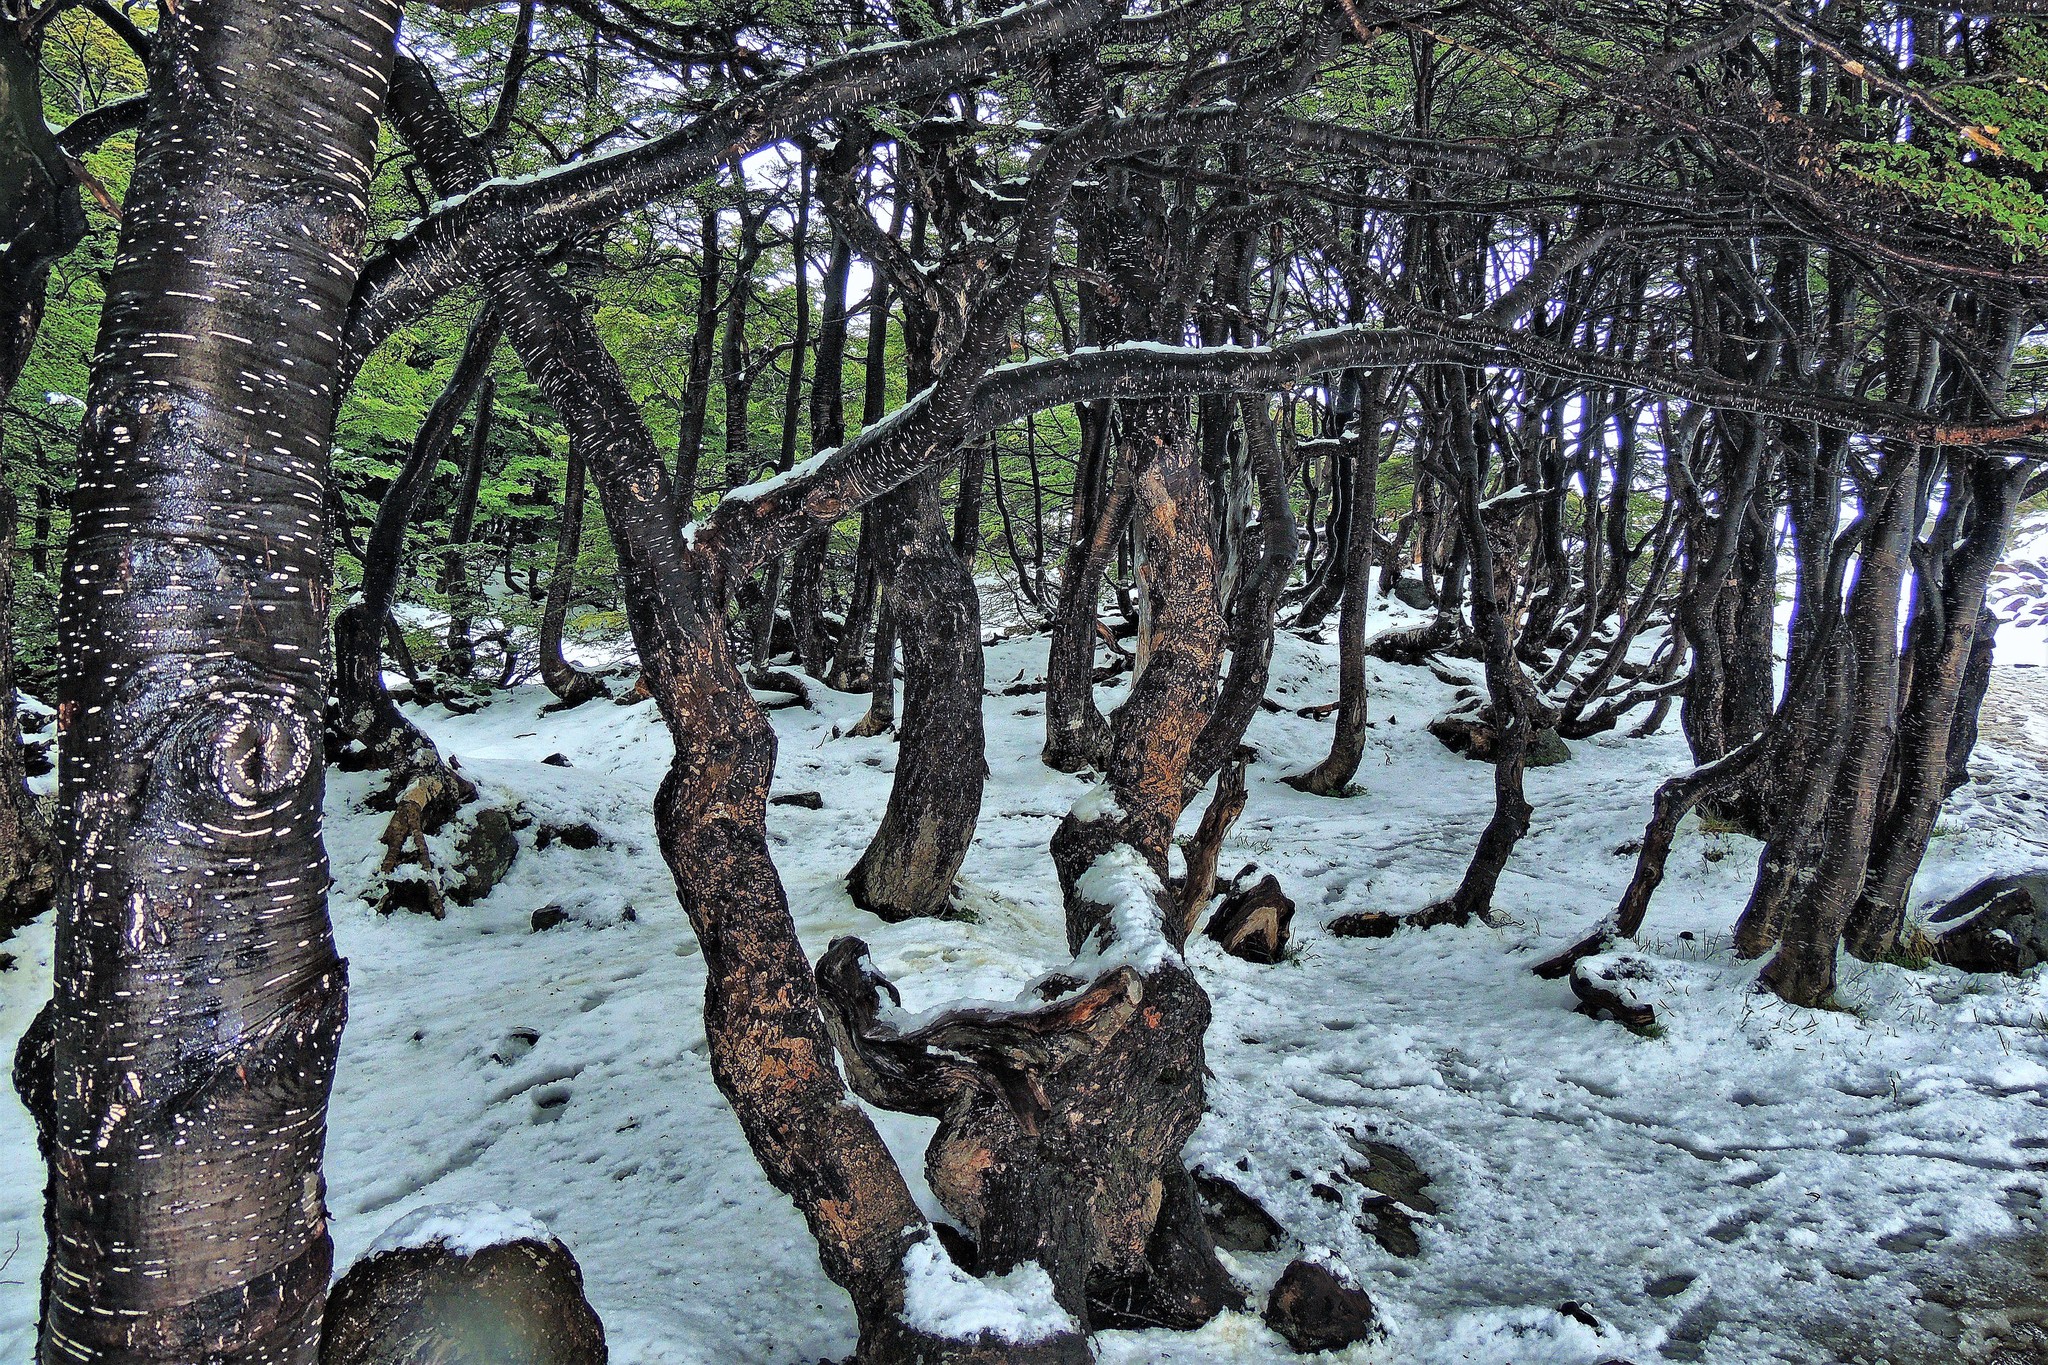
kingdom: Plantae
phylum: Tracheophyta
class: Magnoliopsida
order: Fagales
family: Nothofagaceae
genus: Nothofagus
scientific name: Nothofagus pumilio
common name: Lenga beech
